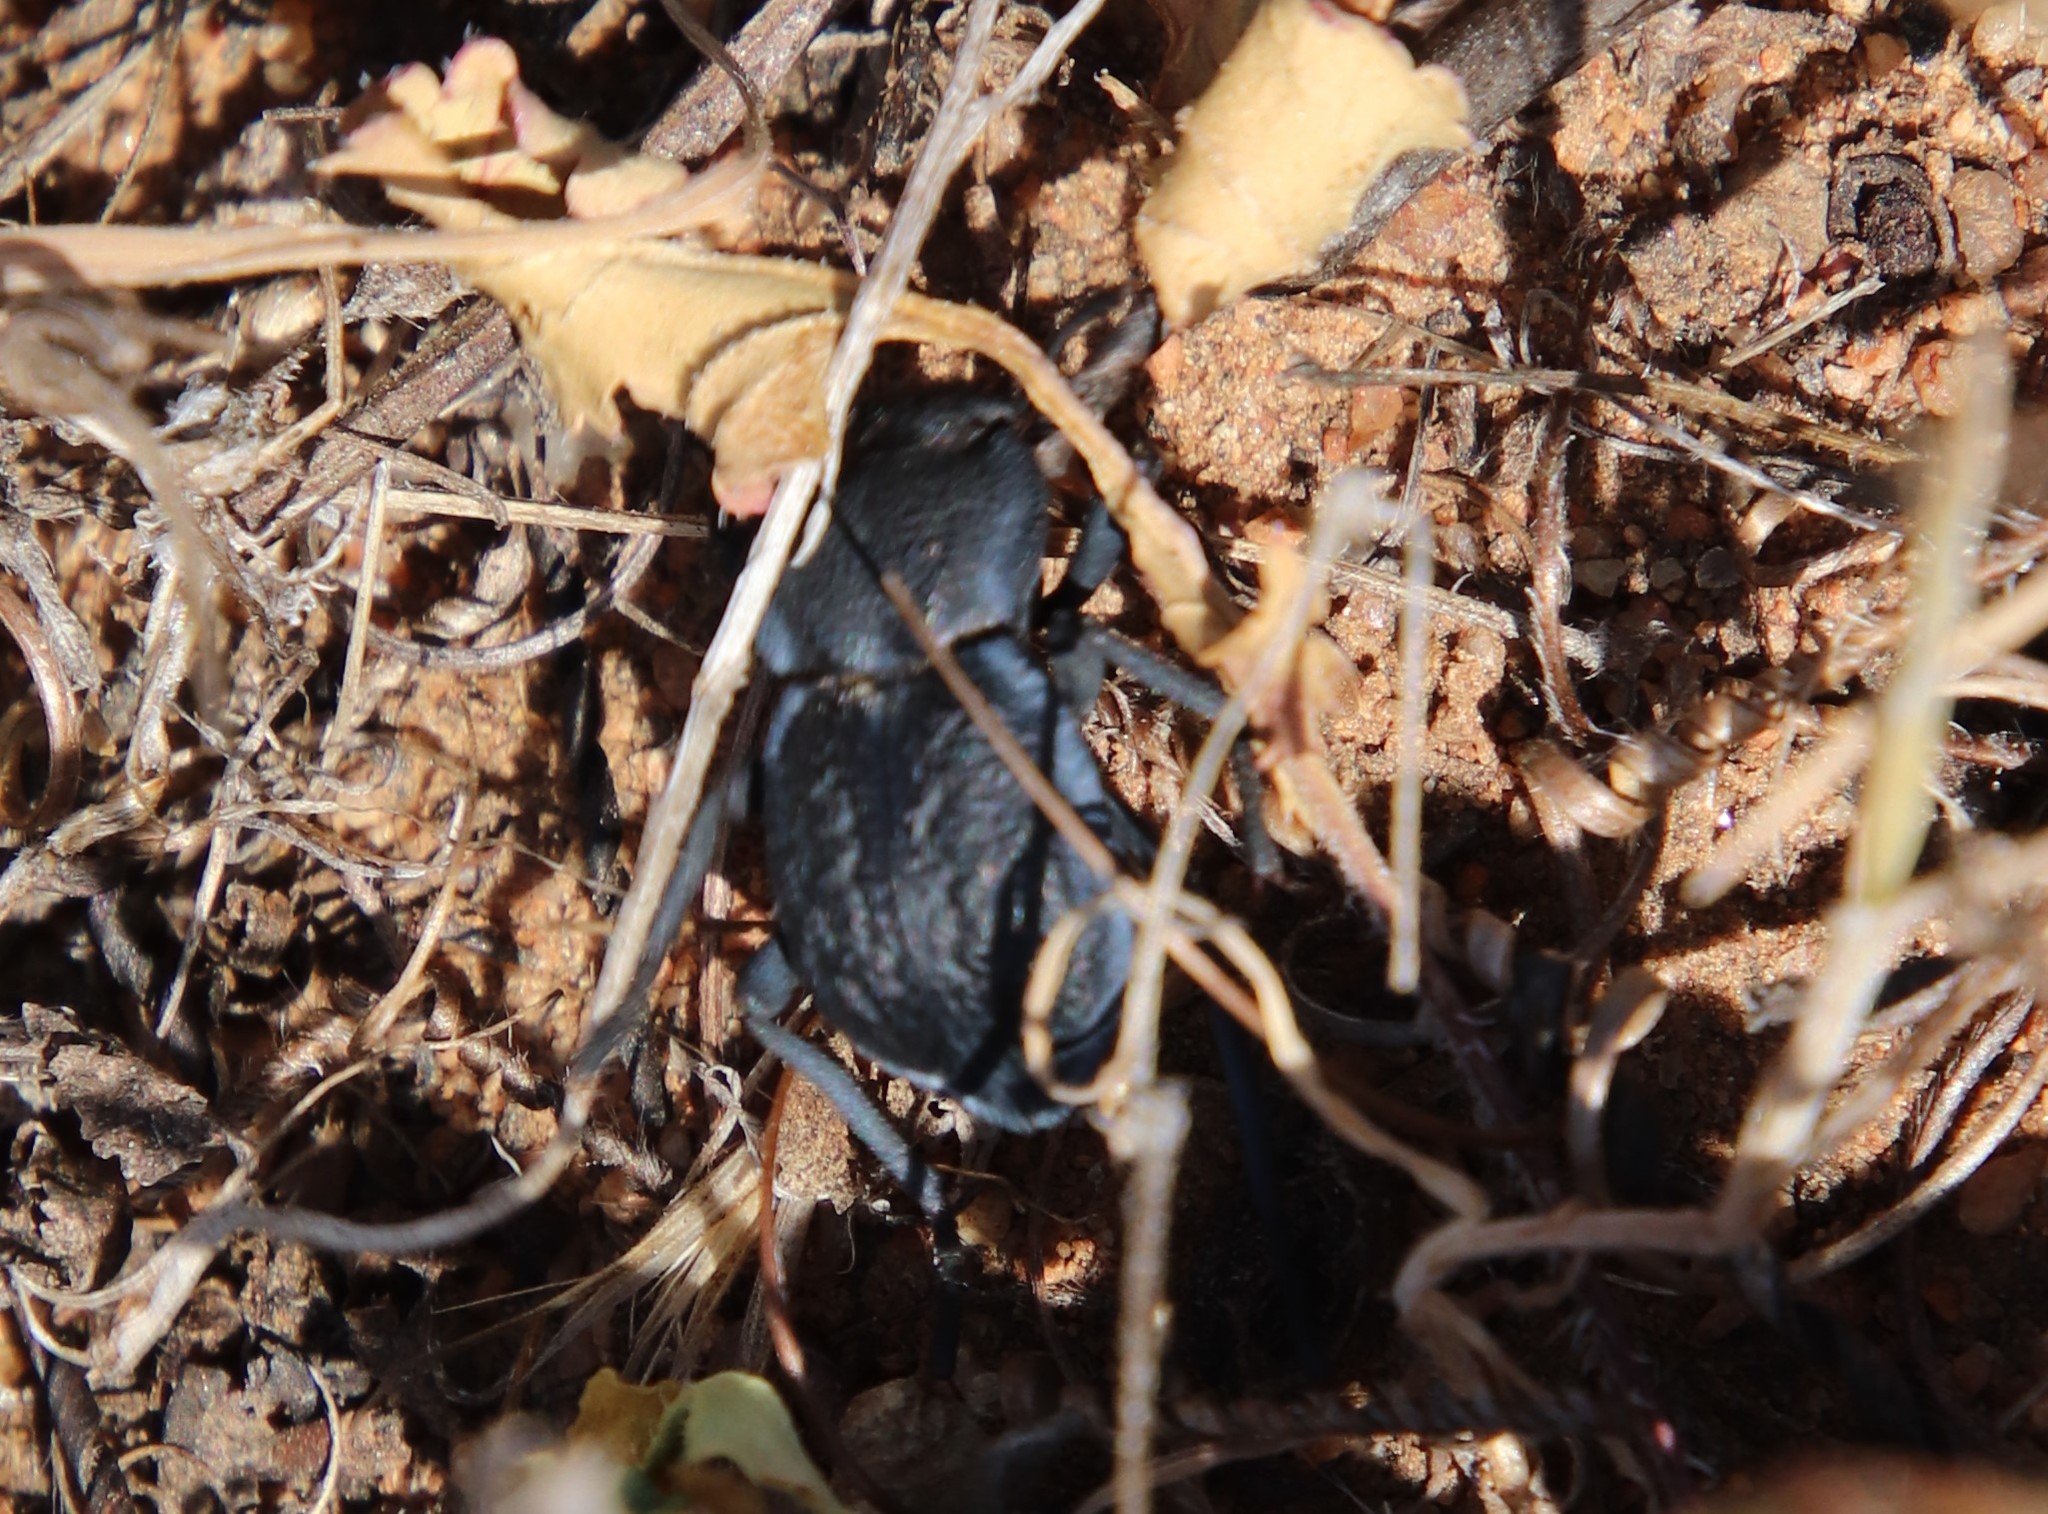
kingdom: Animalia
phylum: Arthropoda
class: Insecta
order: Coleoptera
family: Tenebrionidae
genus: Microschatia
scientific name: Microschatia inaequalis
